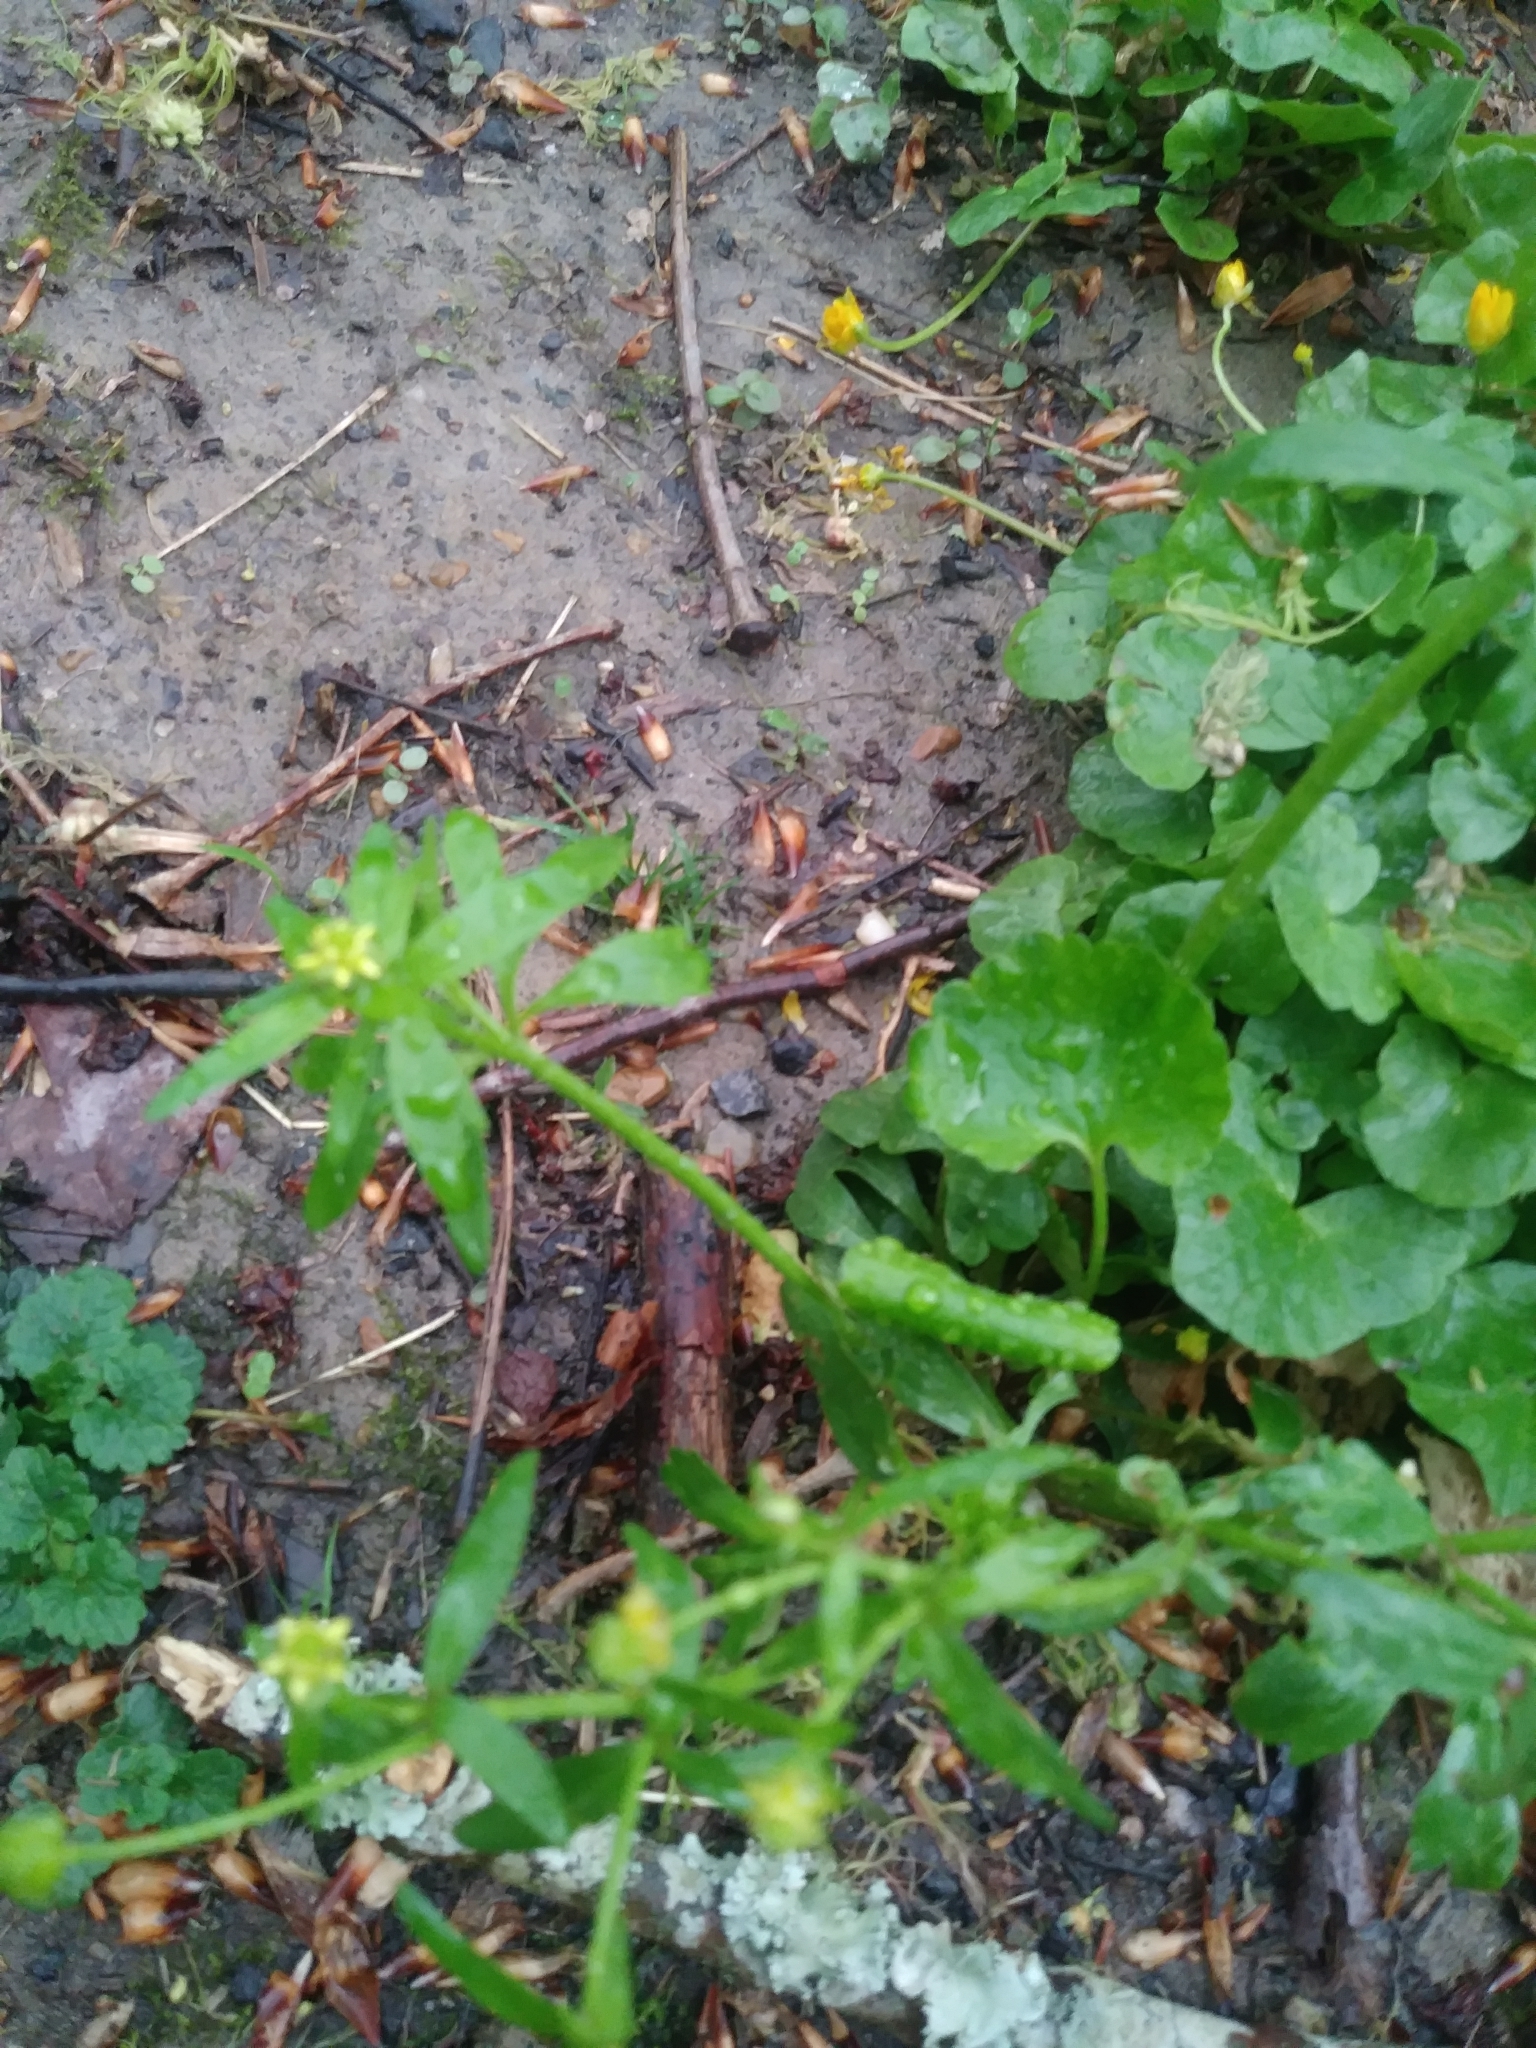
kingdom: Plantae
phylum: Tracheophyta
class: Magnoliopsida
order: Ranunculales
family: Ranunculaceae
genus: Ranunculus
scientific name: Ranunculus abortivus
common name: Early wood buttercup
